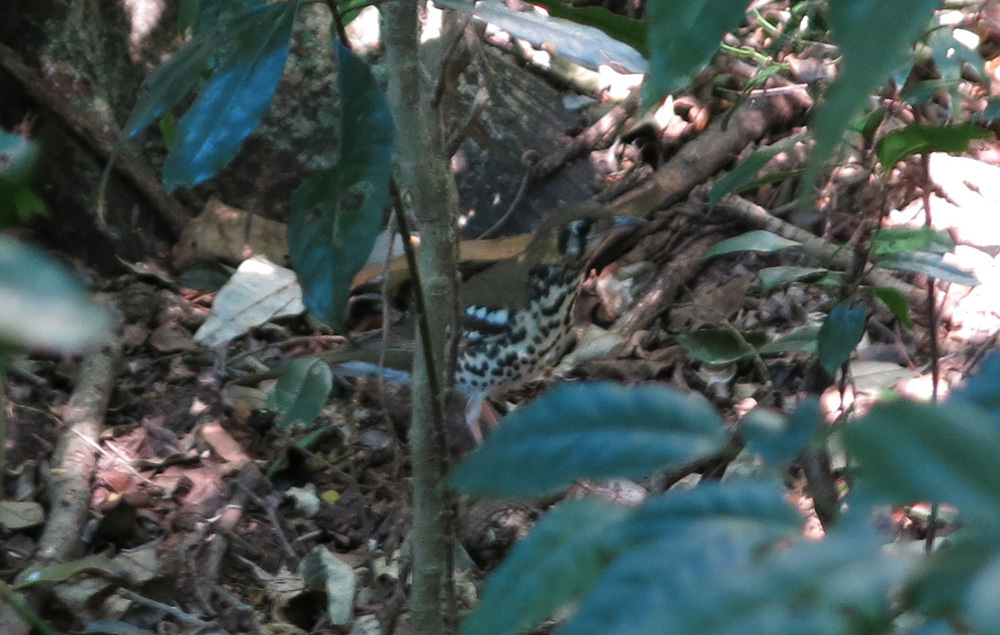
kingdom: Animalia
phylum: Chordata
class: Aves
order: Passeriformes
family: Turdidae
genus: Geokichla
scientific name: Geokichla guttata
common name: Spotted ground-thrush
